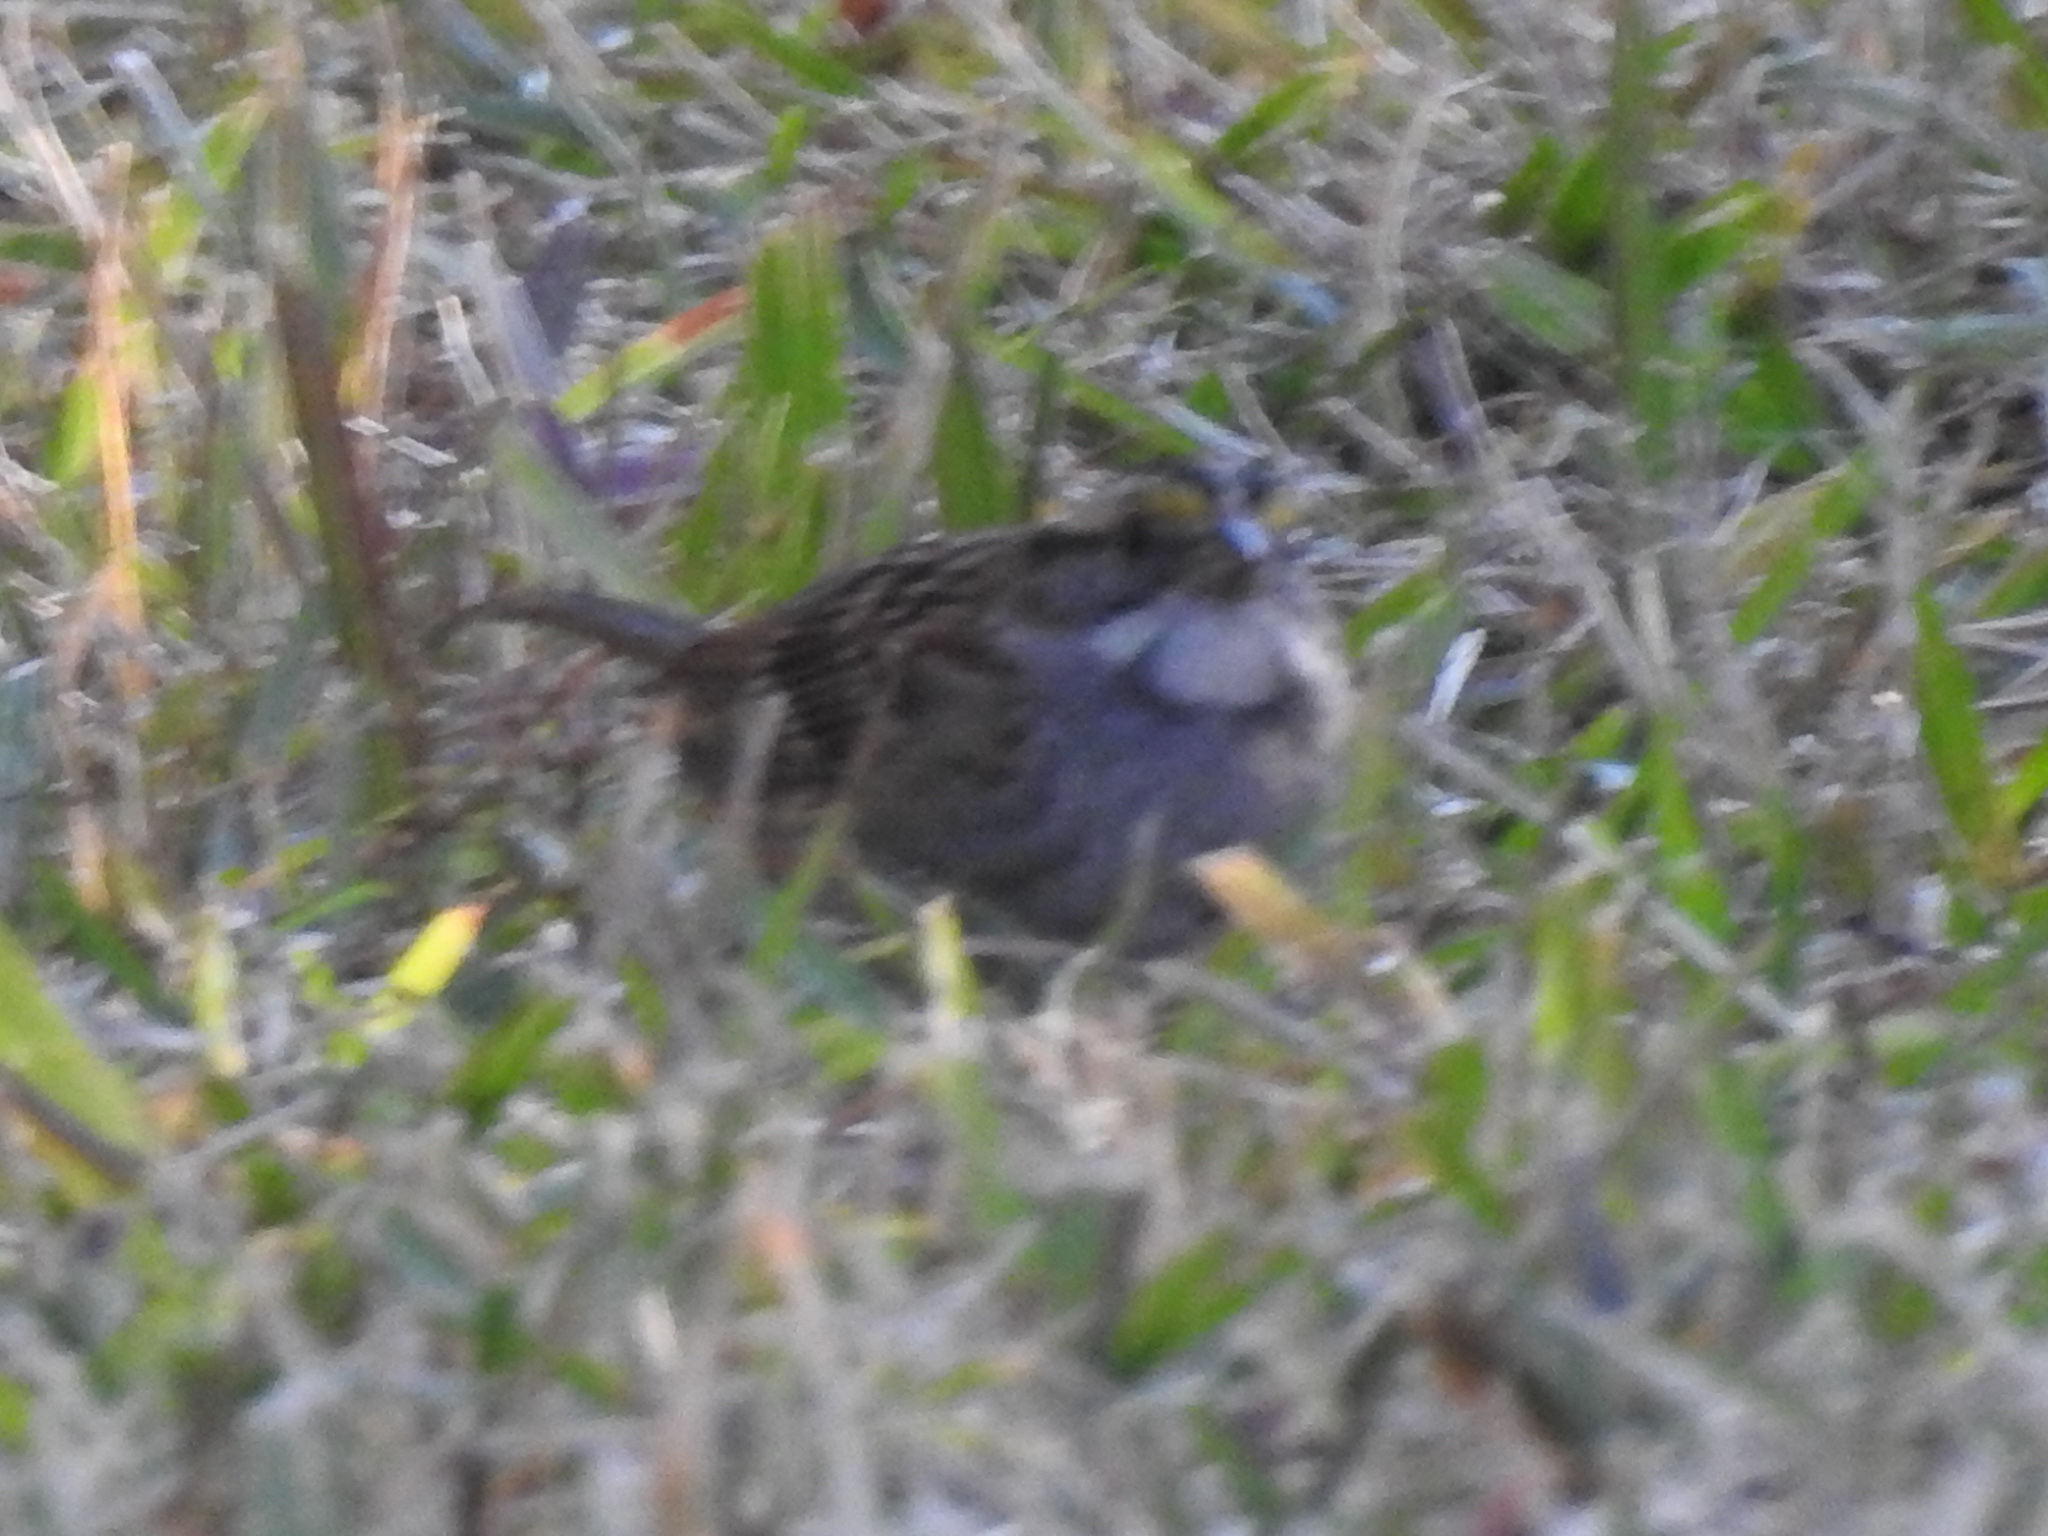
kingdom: Animalia
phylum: Chordata
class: Aves
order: Passeriformes
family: Passerellidae
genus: Zonotrichia
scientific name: Zonotrichia albicollis
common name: White-throated sparrow
